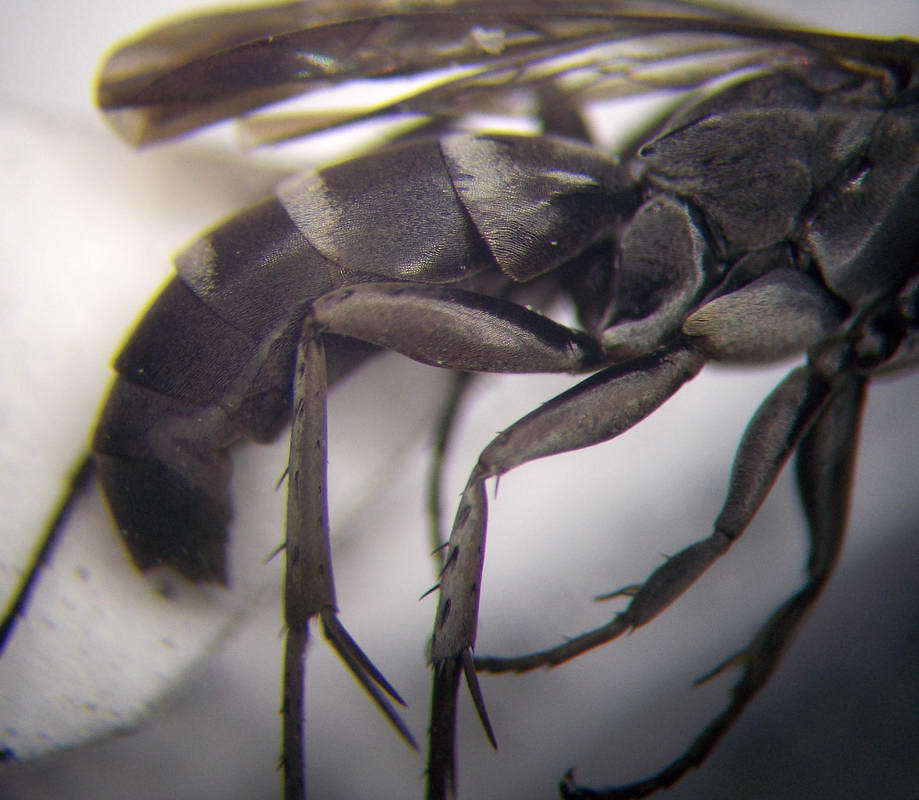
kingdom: Animalia
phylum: Arthropoda
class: Insecta
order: Hymenoptera
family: Pompilidae
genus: Aporinellus
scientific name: Aporinellus sexmaculatus
